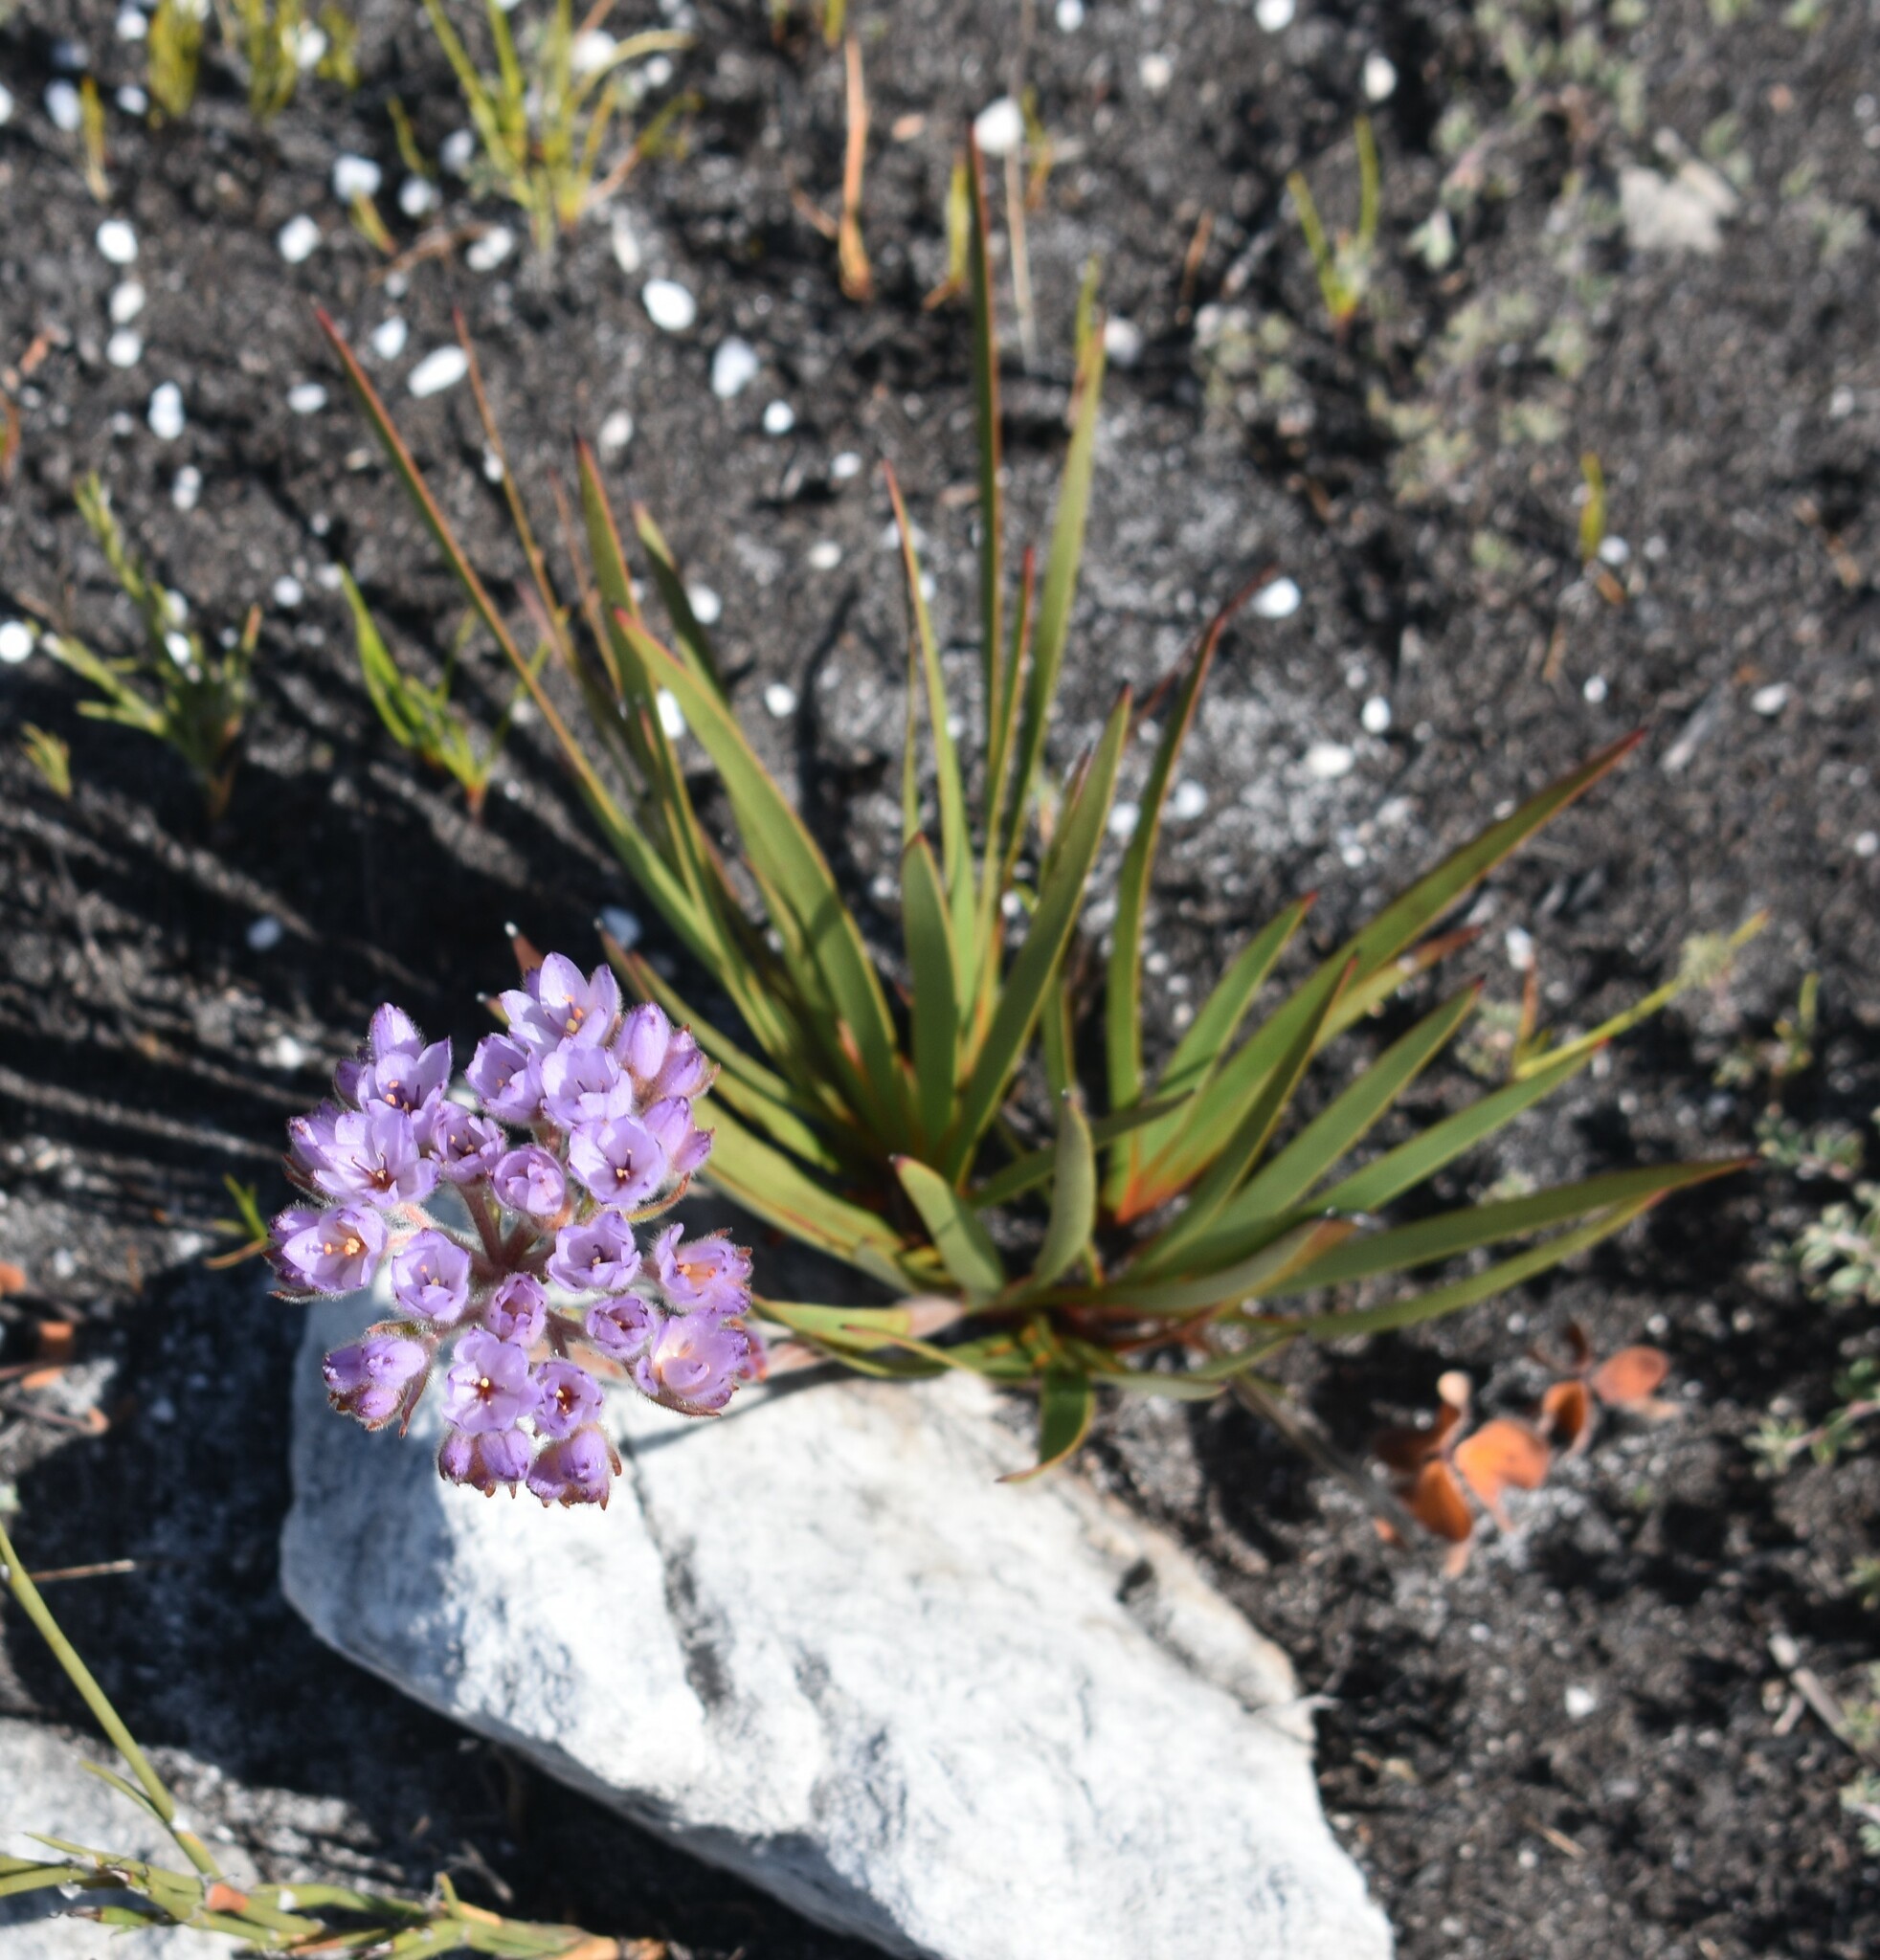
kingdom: Plantae
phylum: Tracheophyta
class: Liliopsida
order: Commelinales
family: Haemodoraceae
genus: Dilatris
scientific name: Dilatris pillansii
